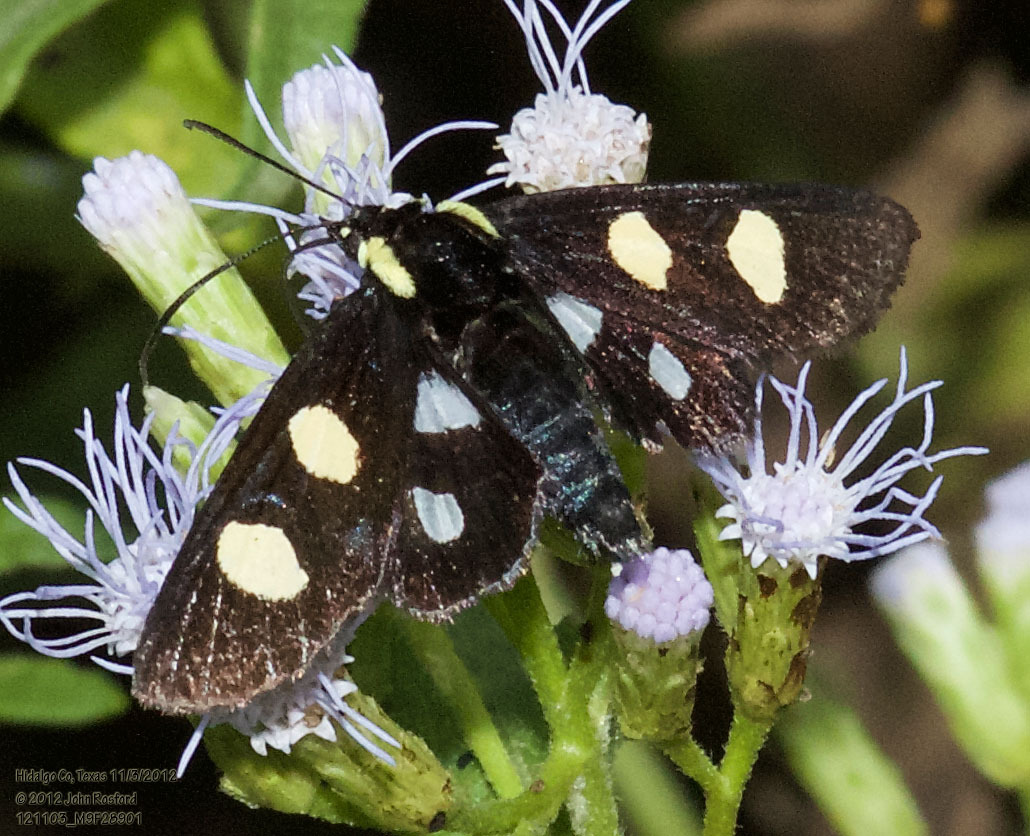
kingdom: Animalia
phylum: Arthropoda
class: Insecta
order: Lepidoptera
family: Noctuidae
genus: Alypia
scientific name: Alypia disparata
